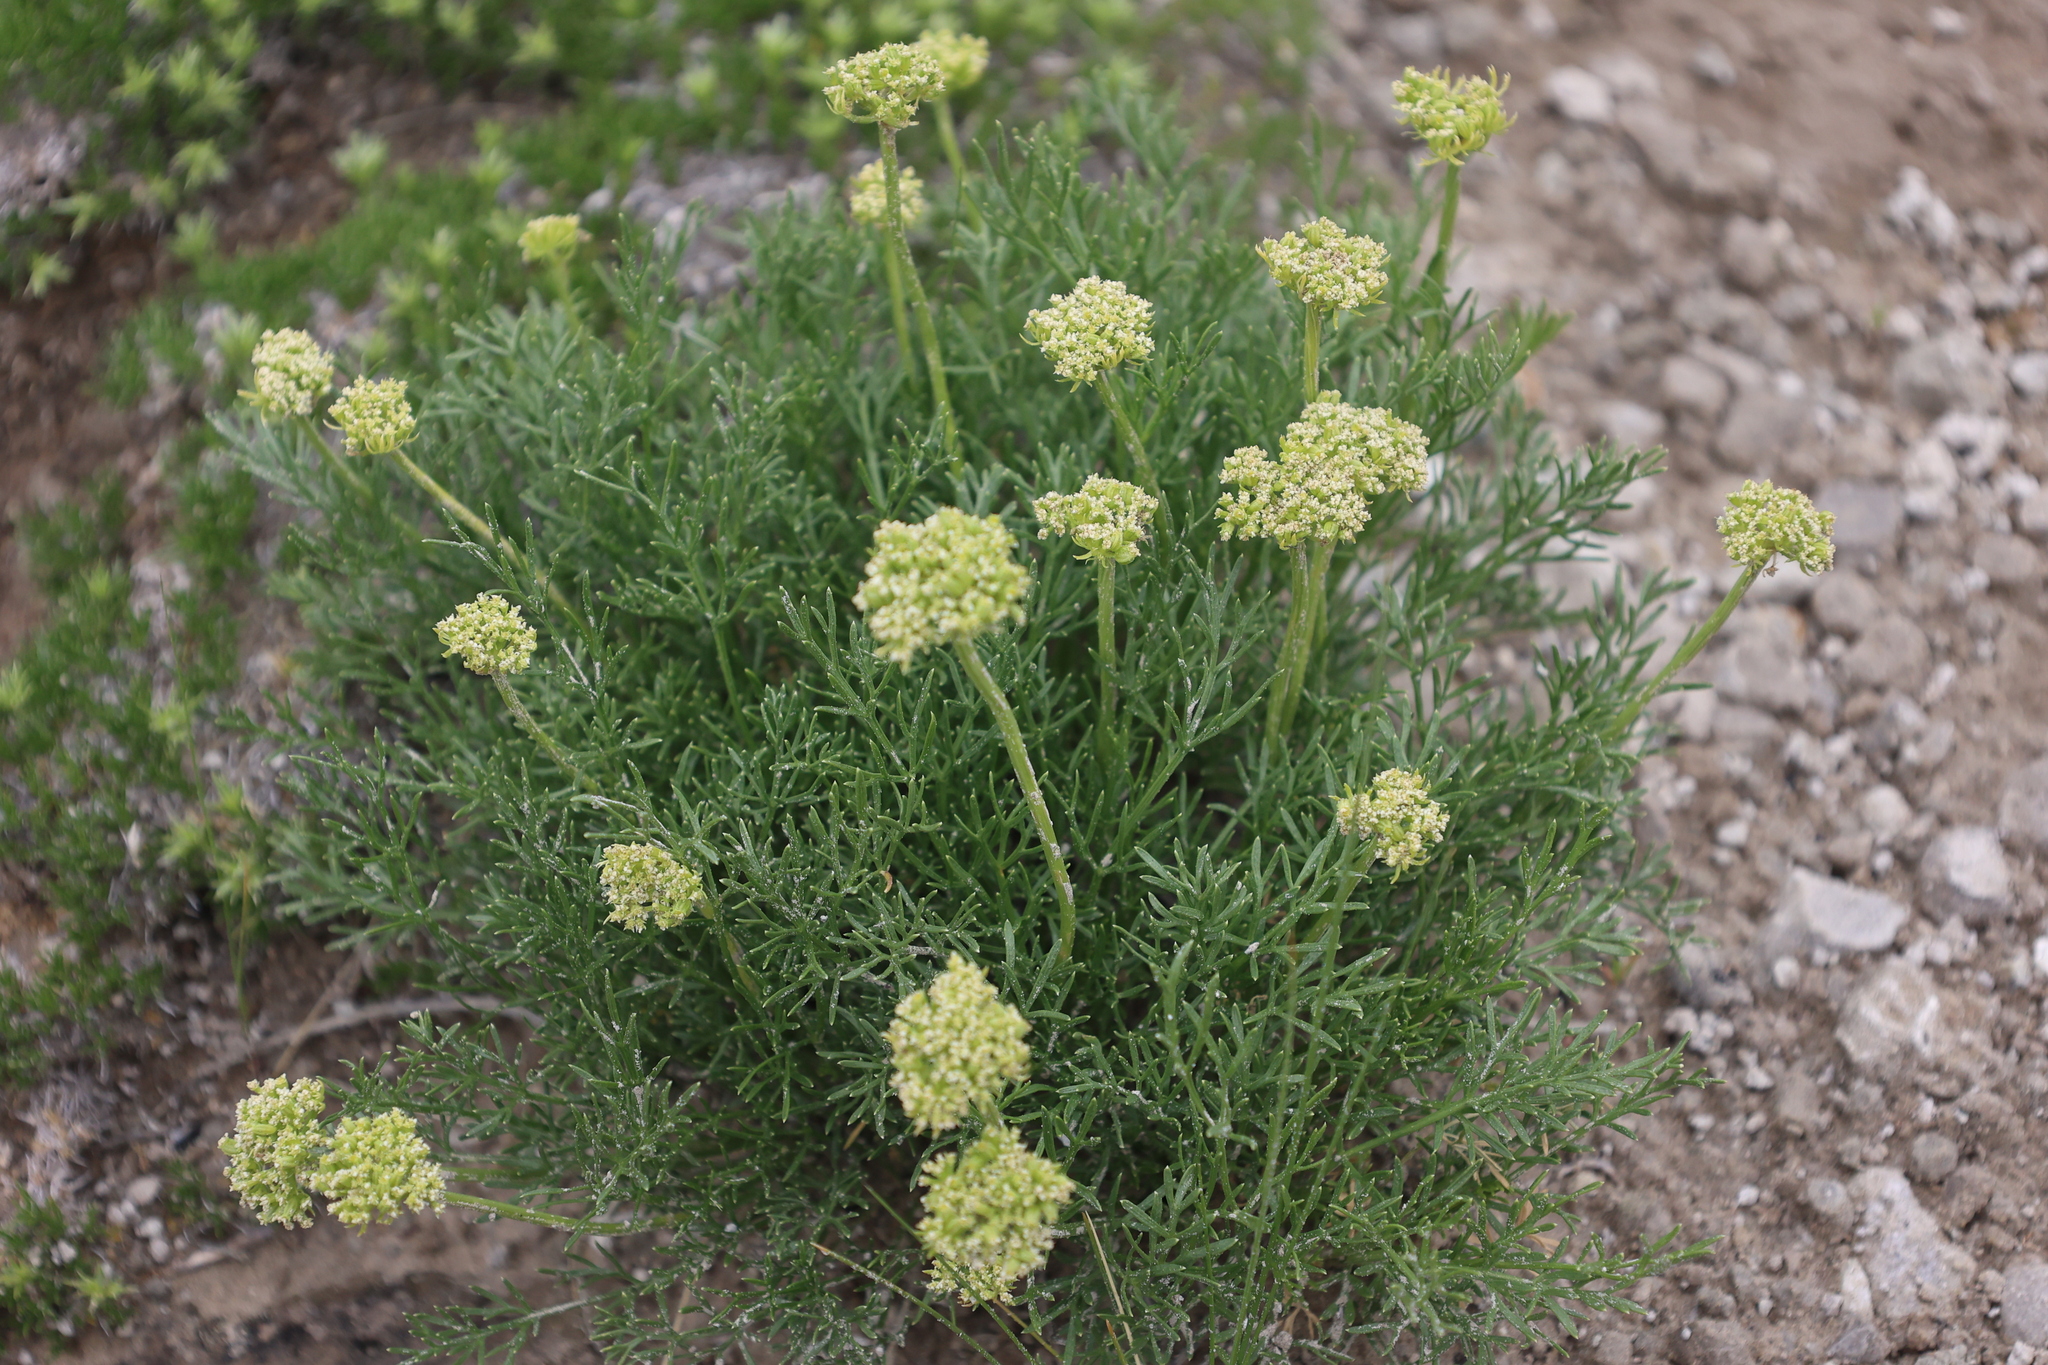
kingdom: Plantae
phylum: Tracheophyta
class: Magnoliopsida
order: Apiales
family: Apiaceae
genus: Musineon
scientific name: Musineon tenuifolium
